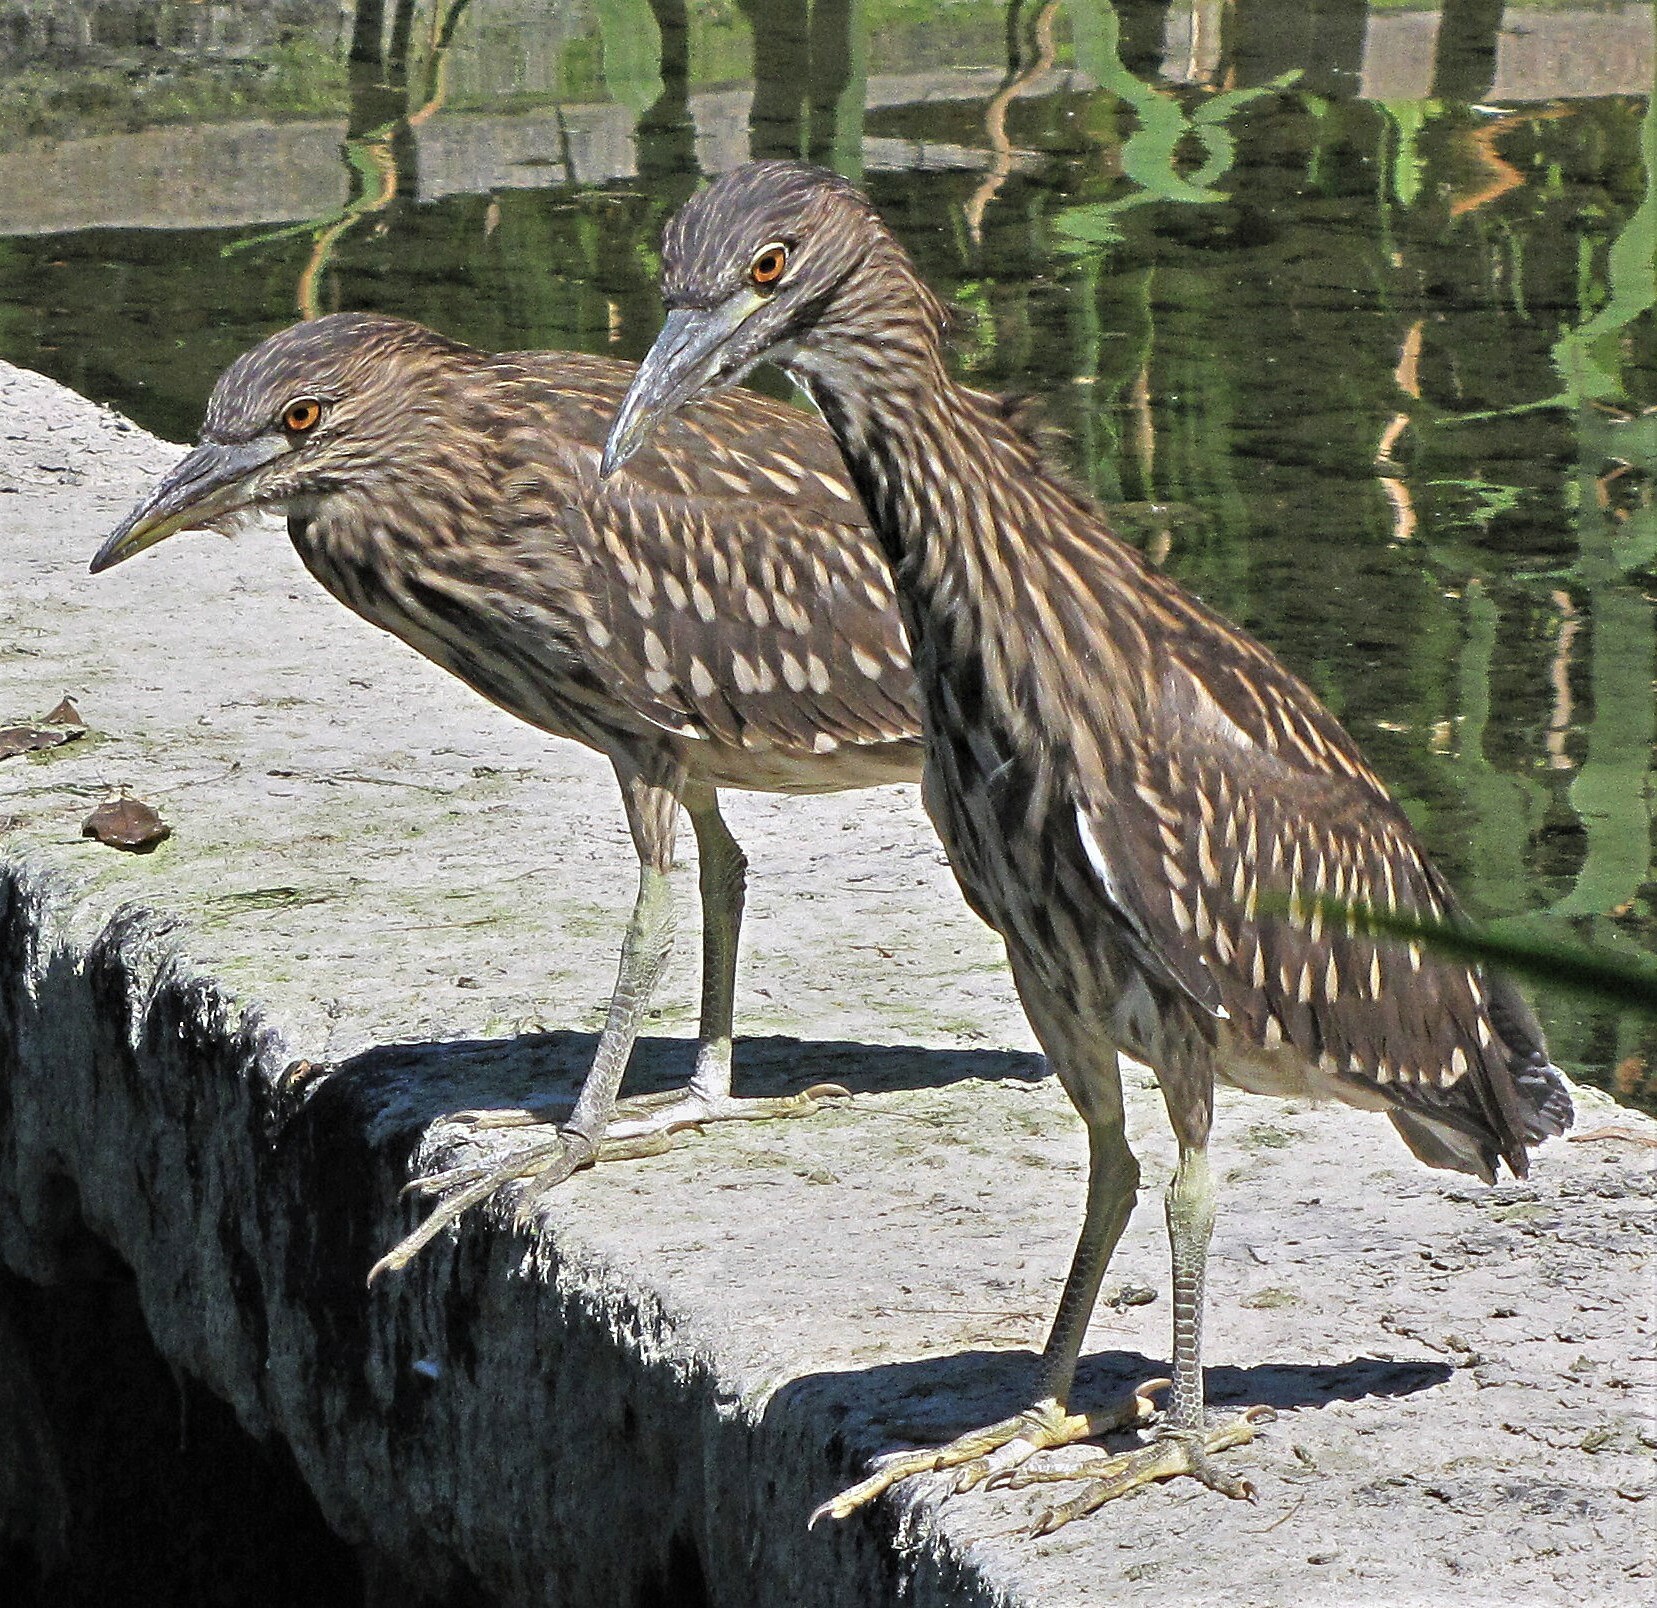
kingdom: Animalia
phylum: Chordata
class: Aves
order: Pelecaniformes
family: Ardeidae
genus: Nycticorax
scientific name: Nycticorax nycticorax
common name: Black-crowned night heron
